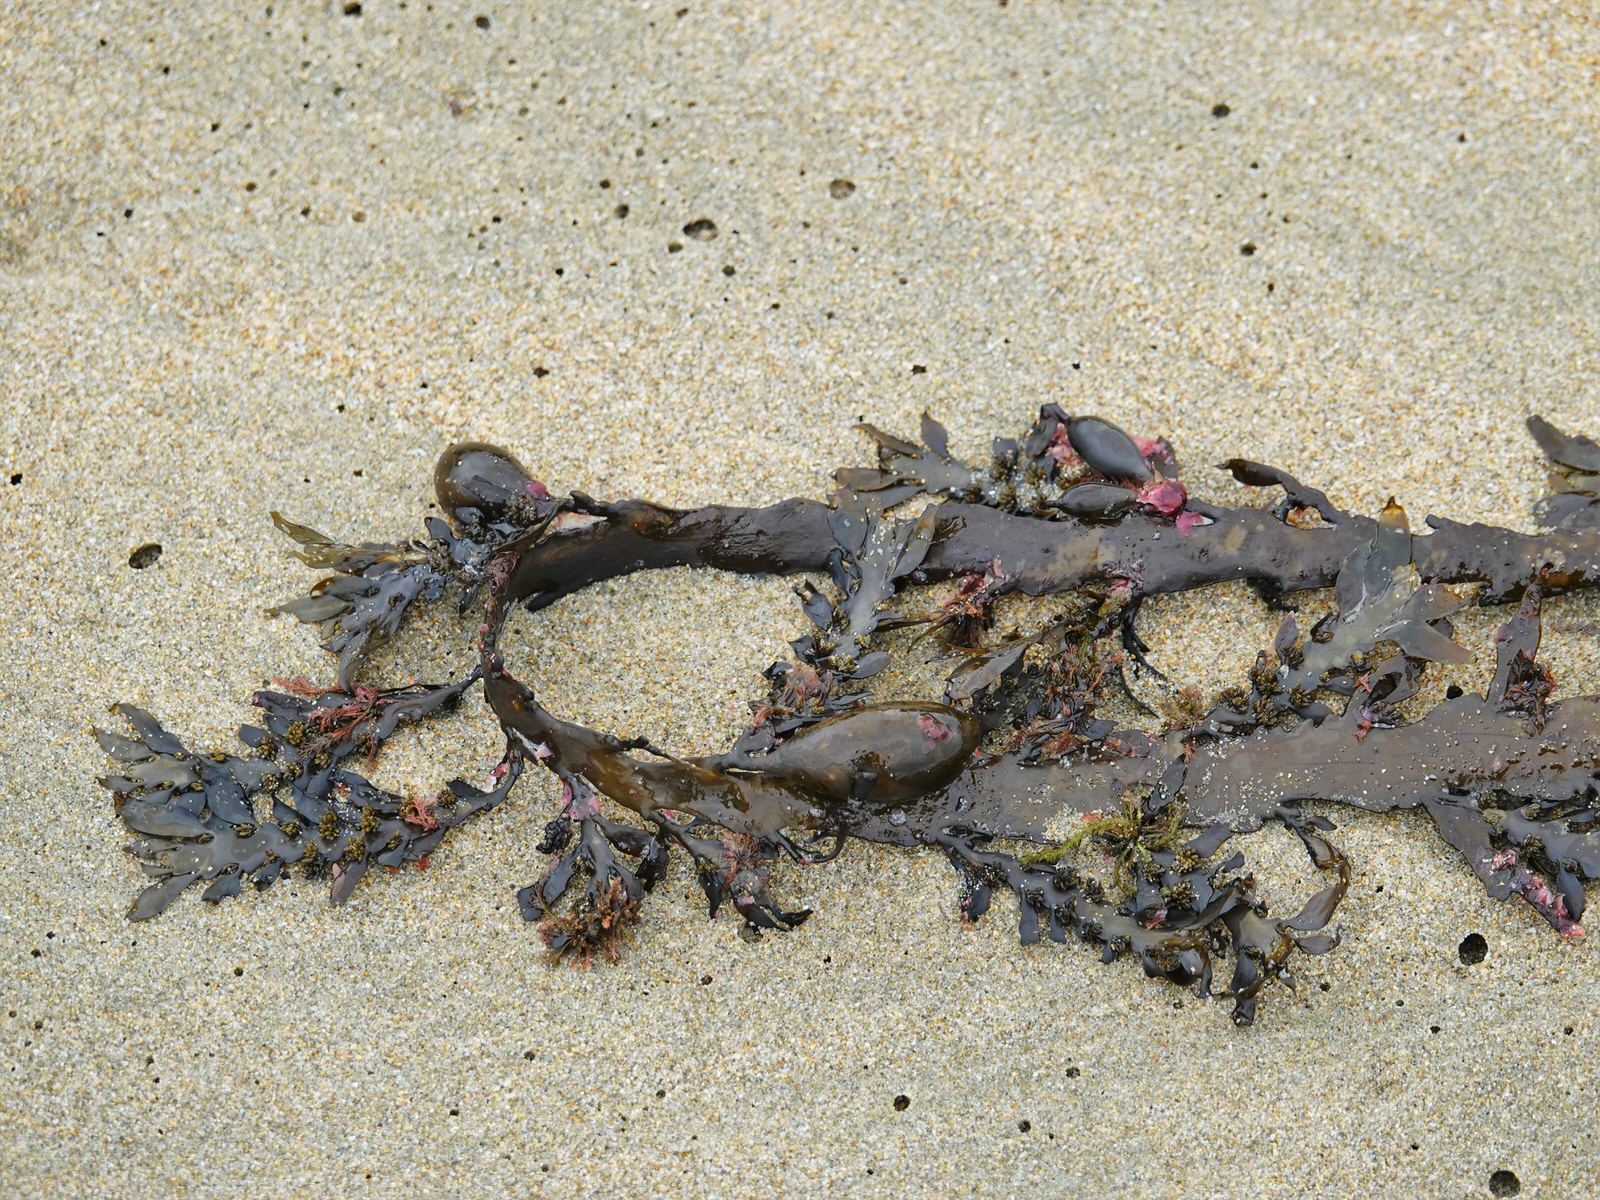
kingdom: Chromista
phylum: Ochrophyta
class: Phaeophyceae
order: Fucales
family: Sargassaceae
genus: Carpophyllum
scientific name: Carpophyllum maschalocarpum
